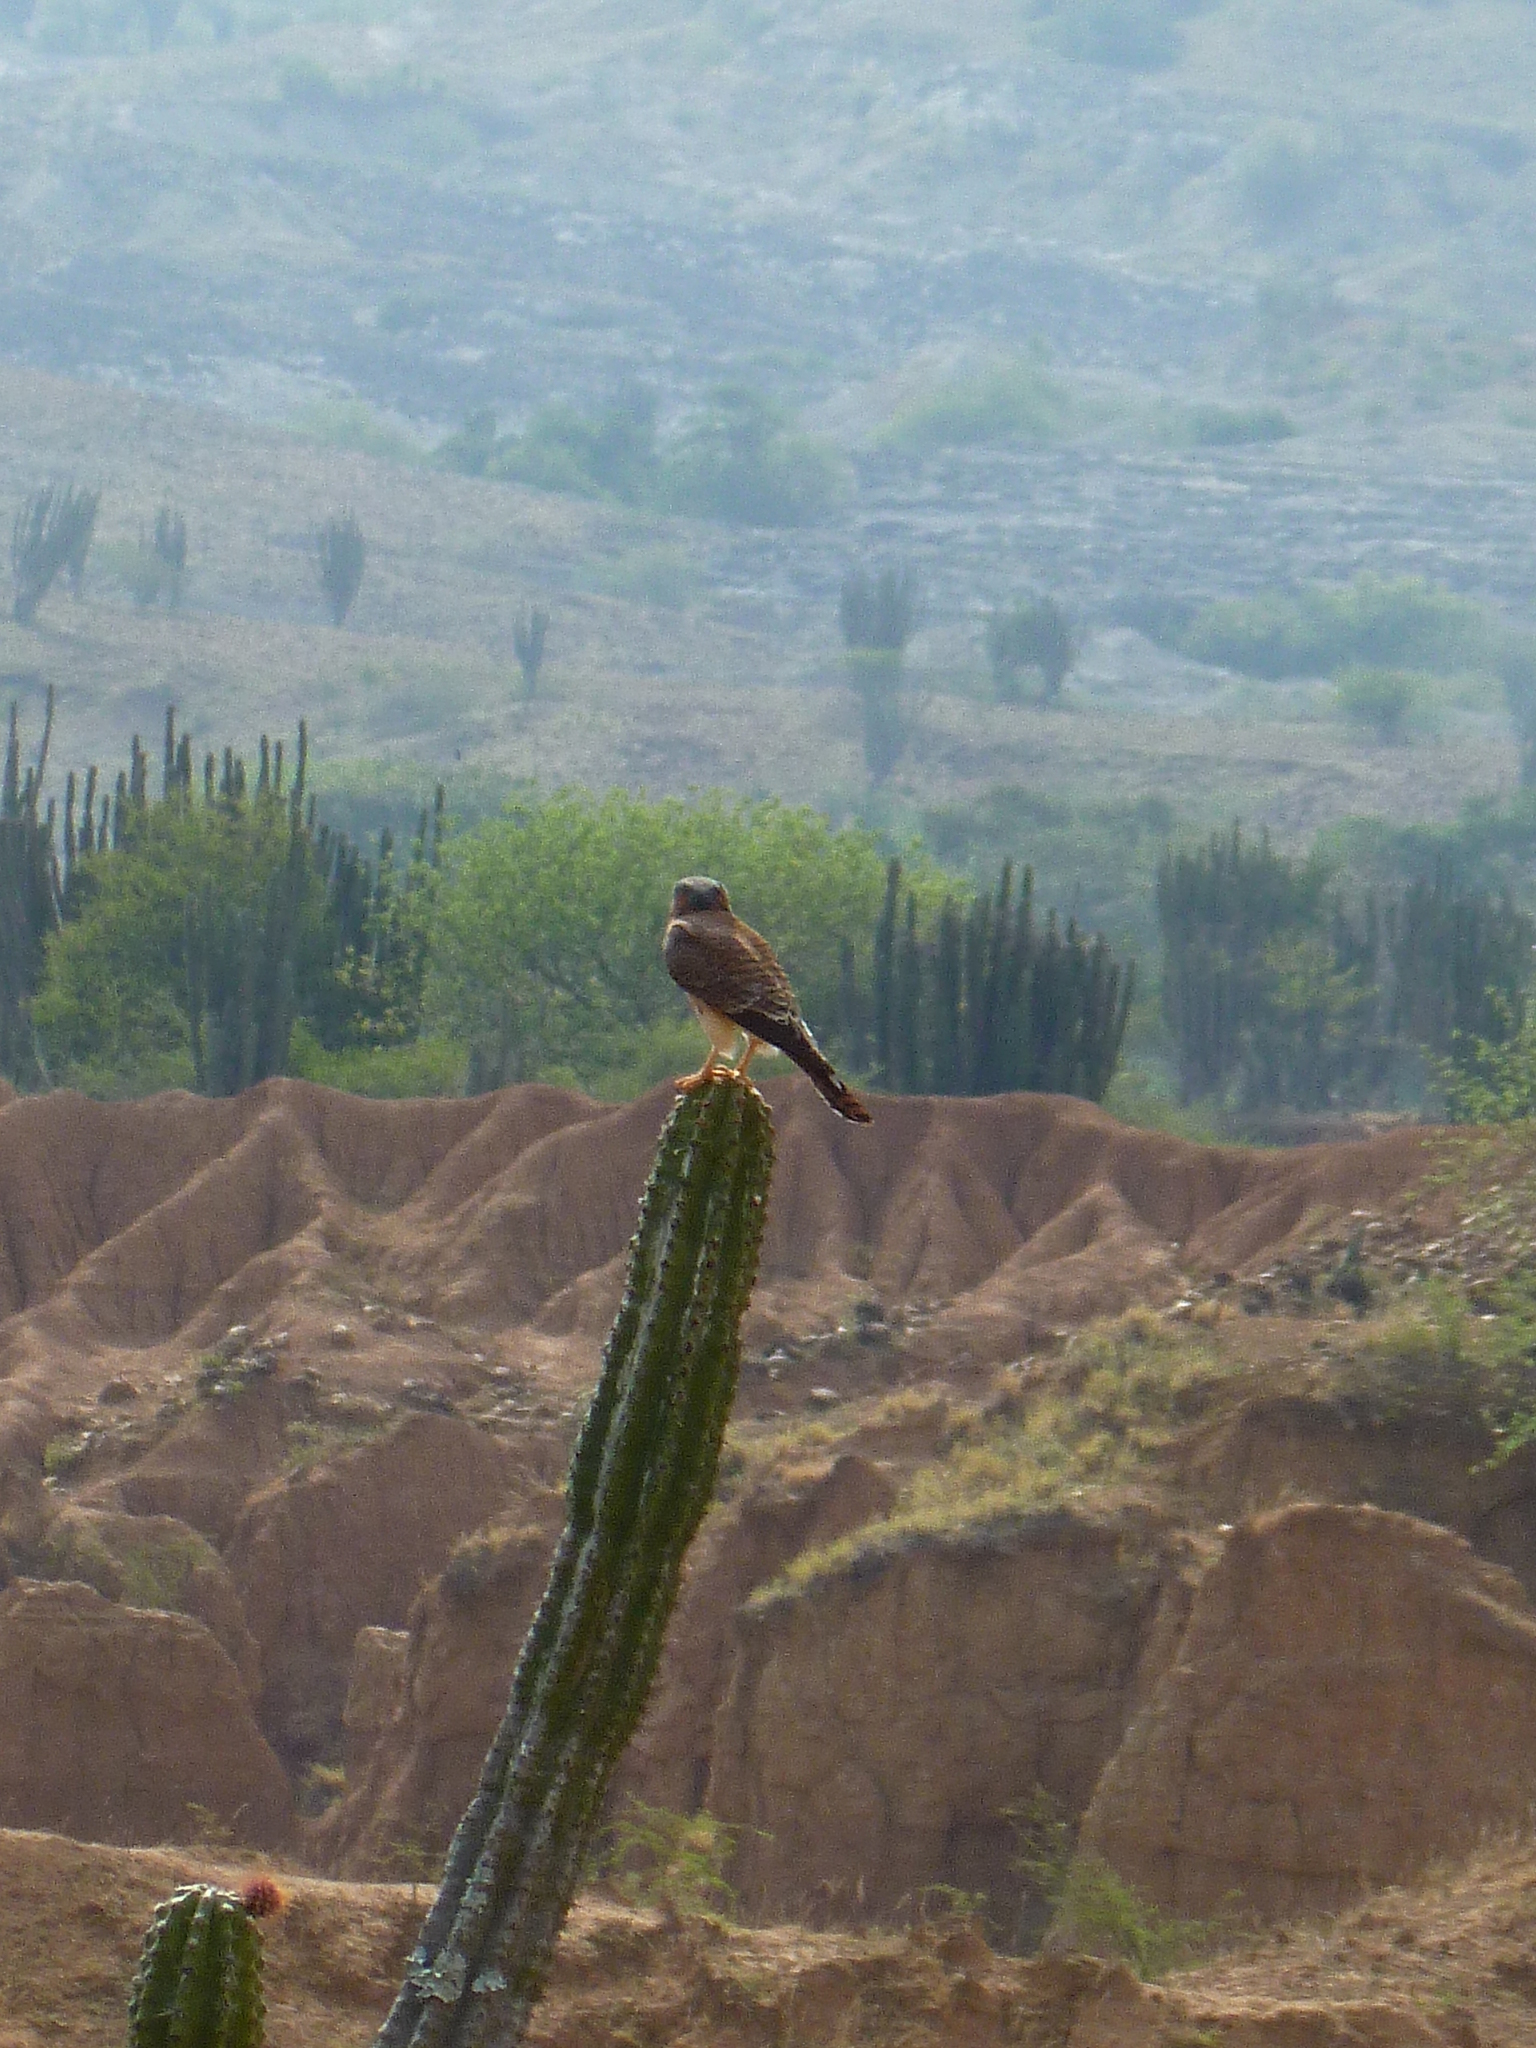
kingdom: Animalia
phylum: Chordata
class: Aves
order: Falconiformes
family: Falconidae
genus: Falco
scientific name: Falco sparverius
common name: American kestrel
